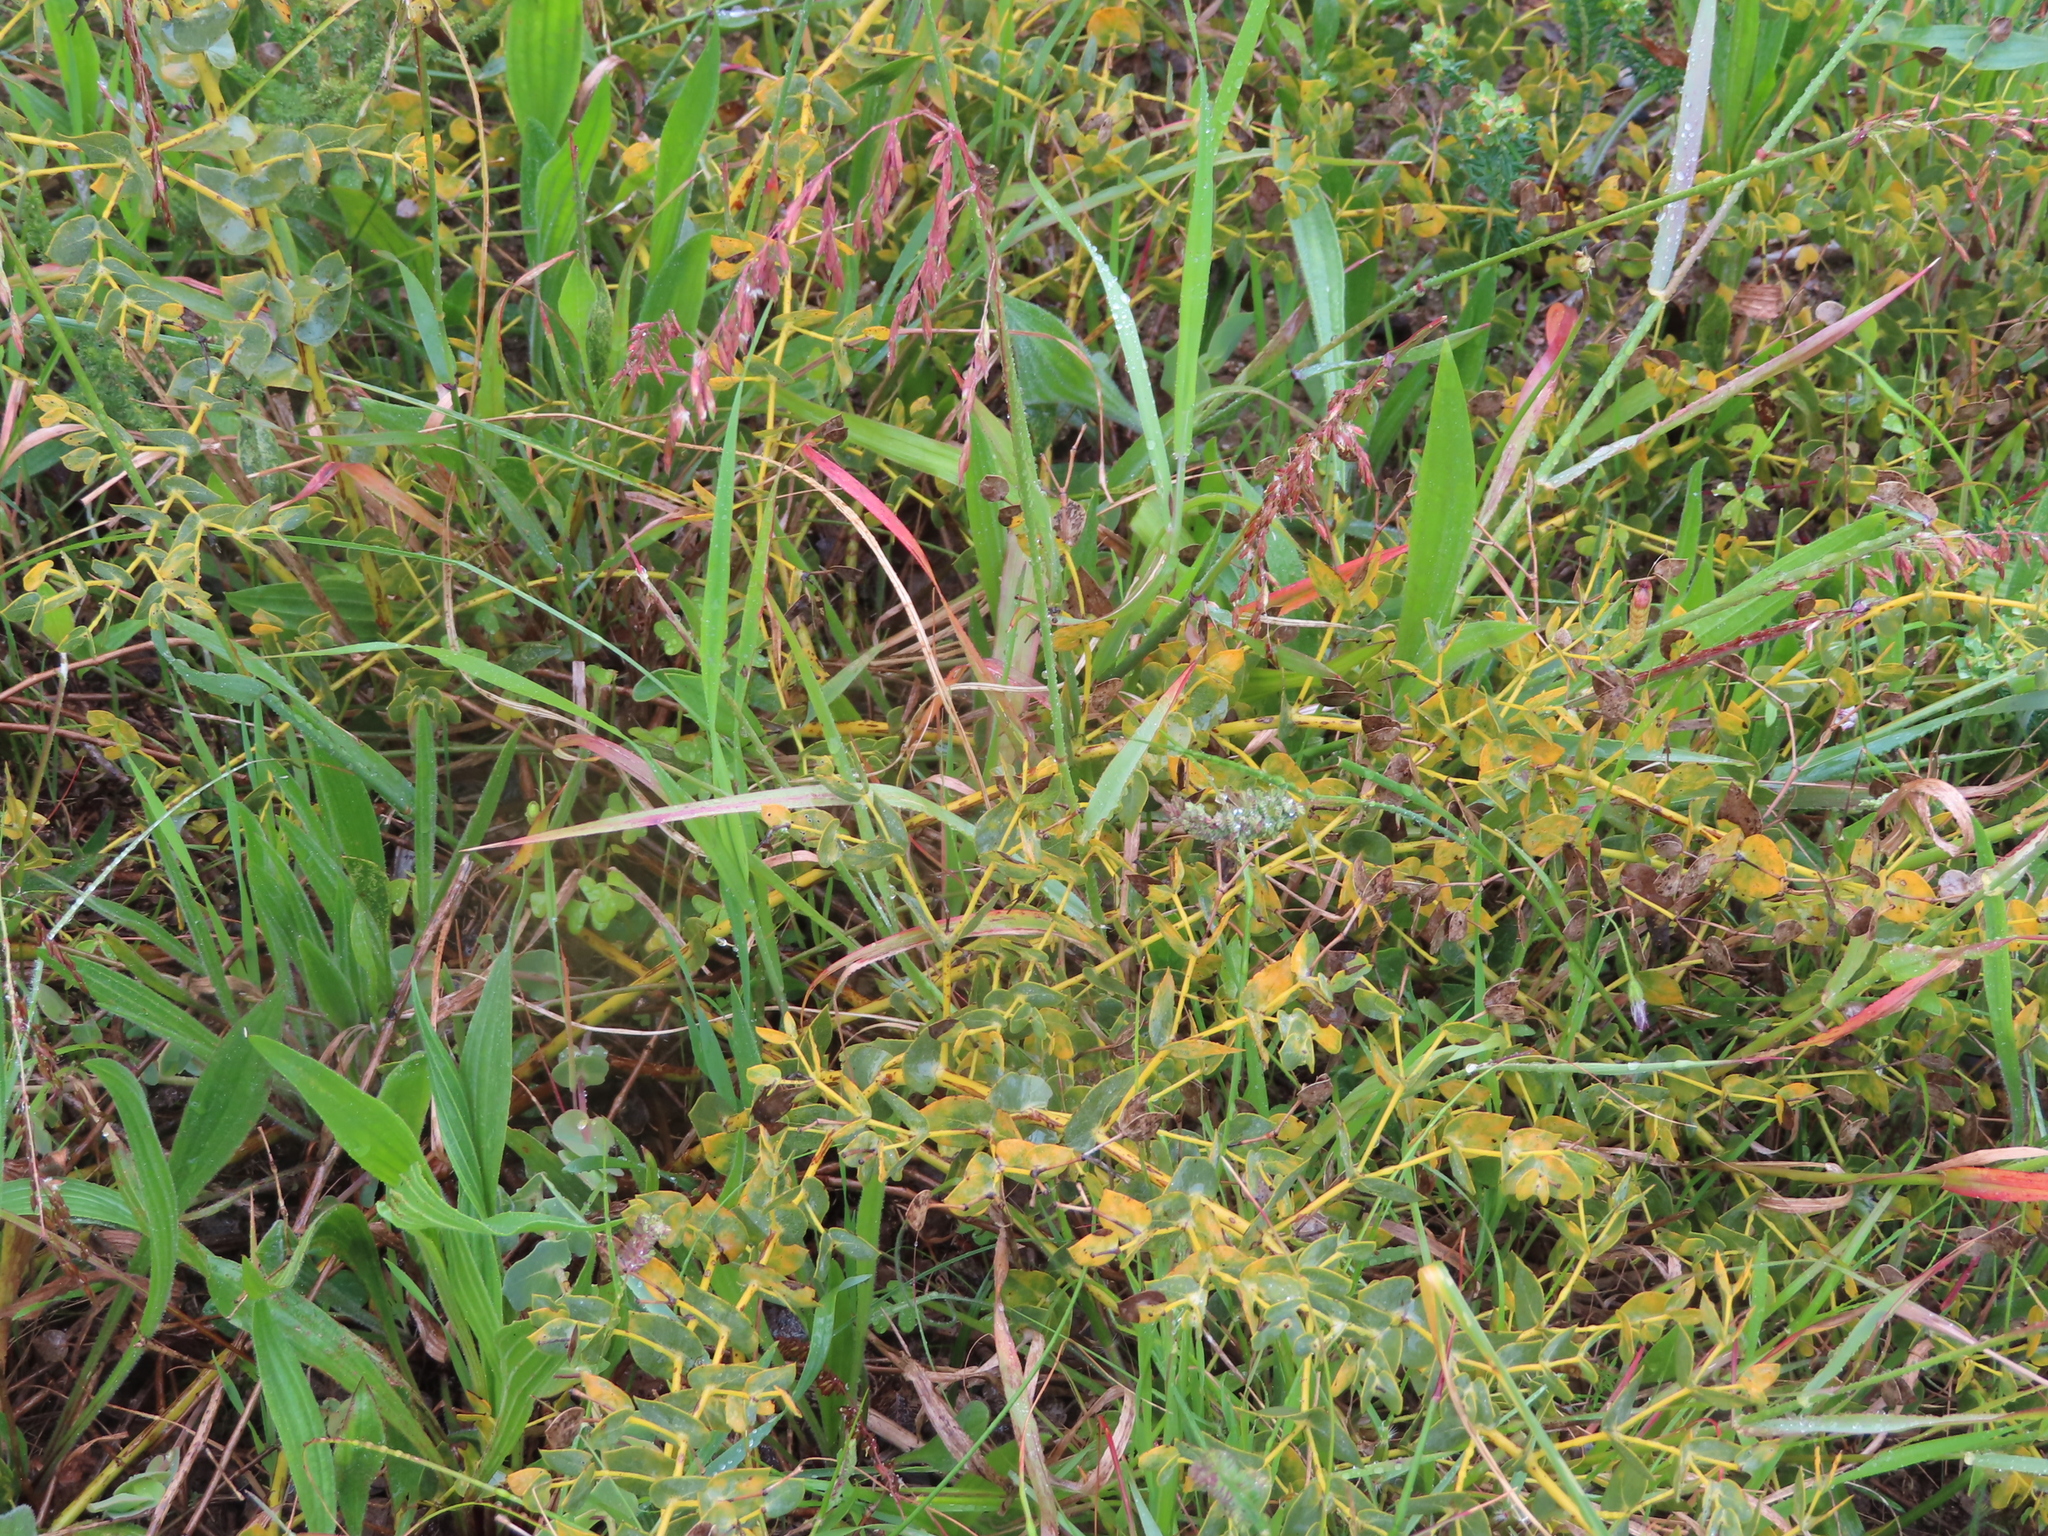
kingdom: Plantae
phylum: Tracheophyta
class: Magnoliopsida
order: Fabales
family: Fabaceae
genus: Rafnia
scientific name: Rafnia capensis
